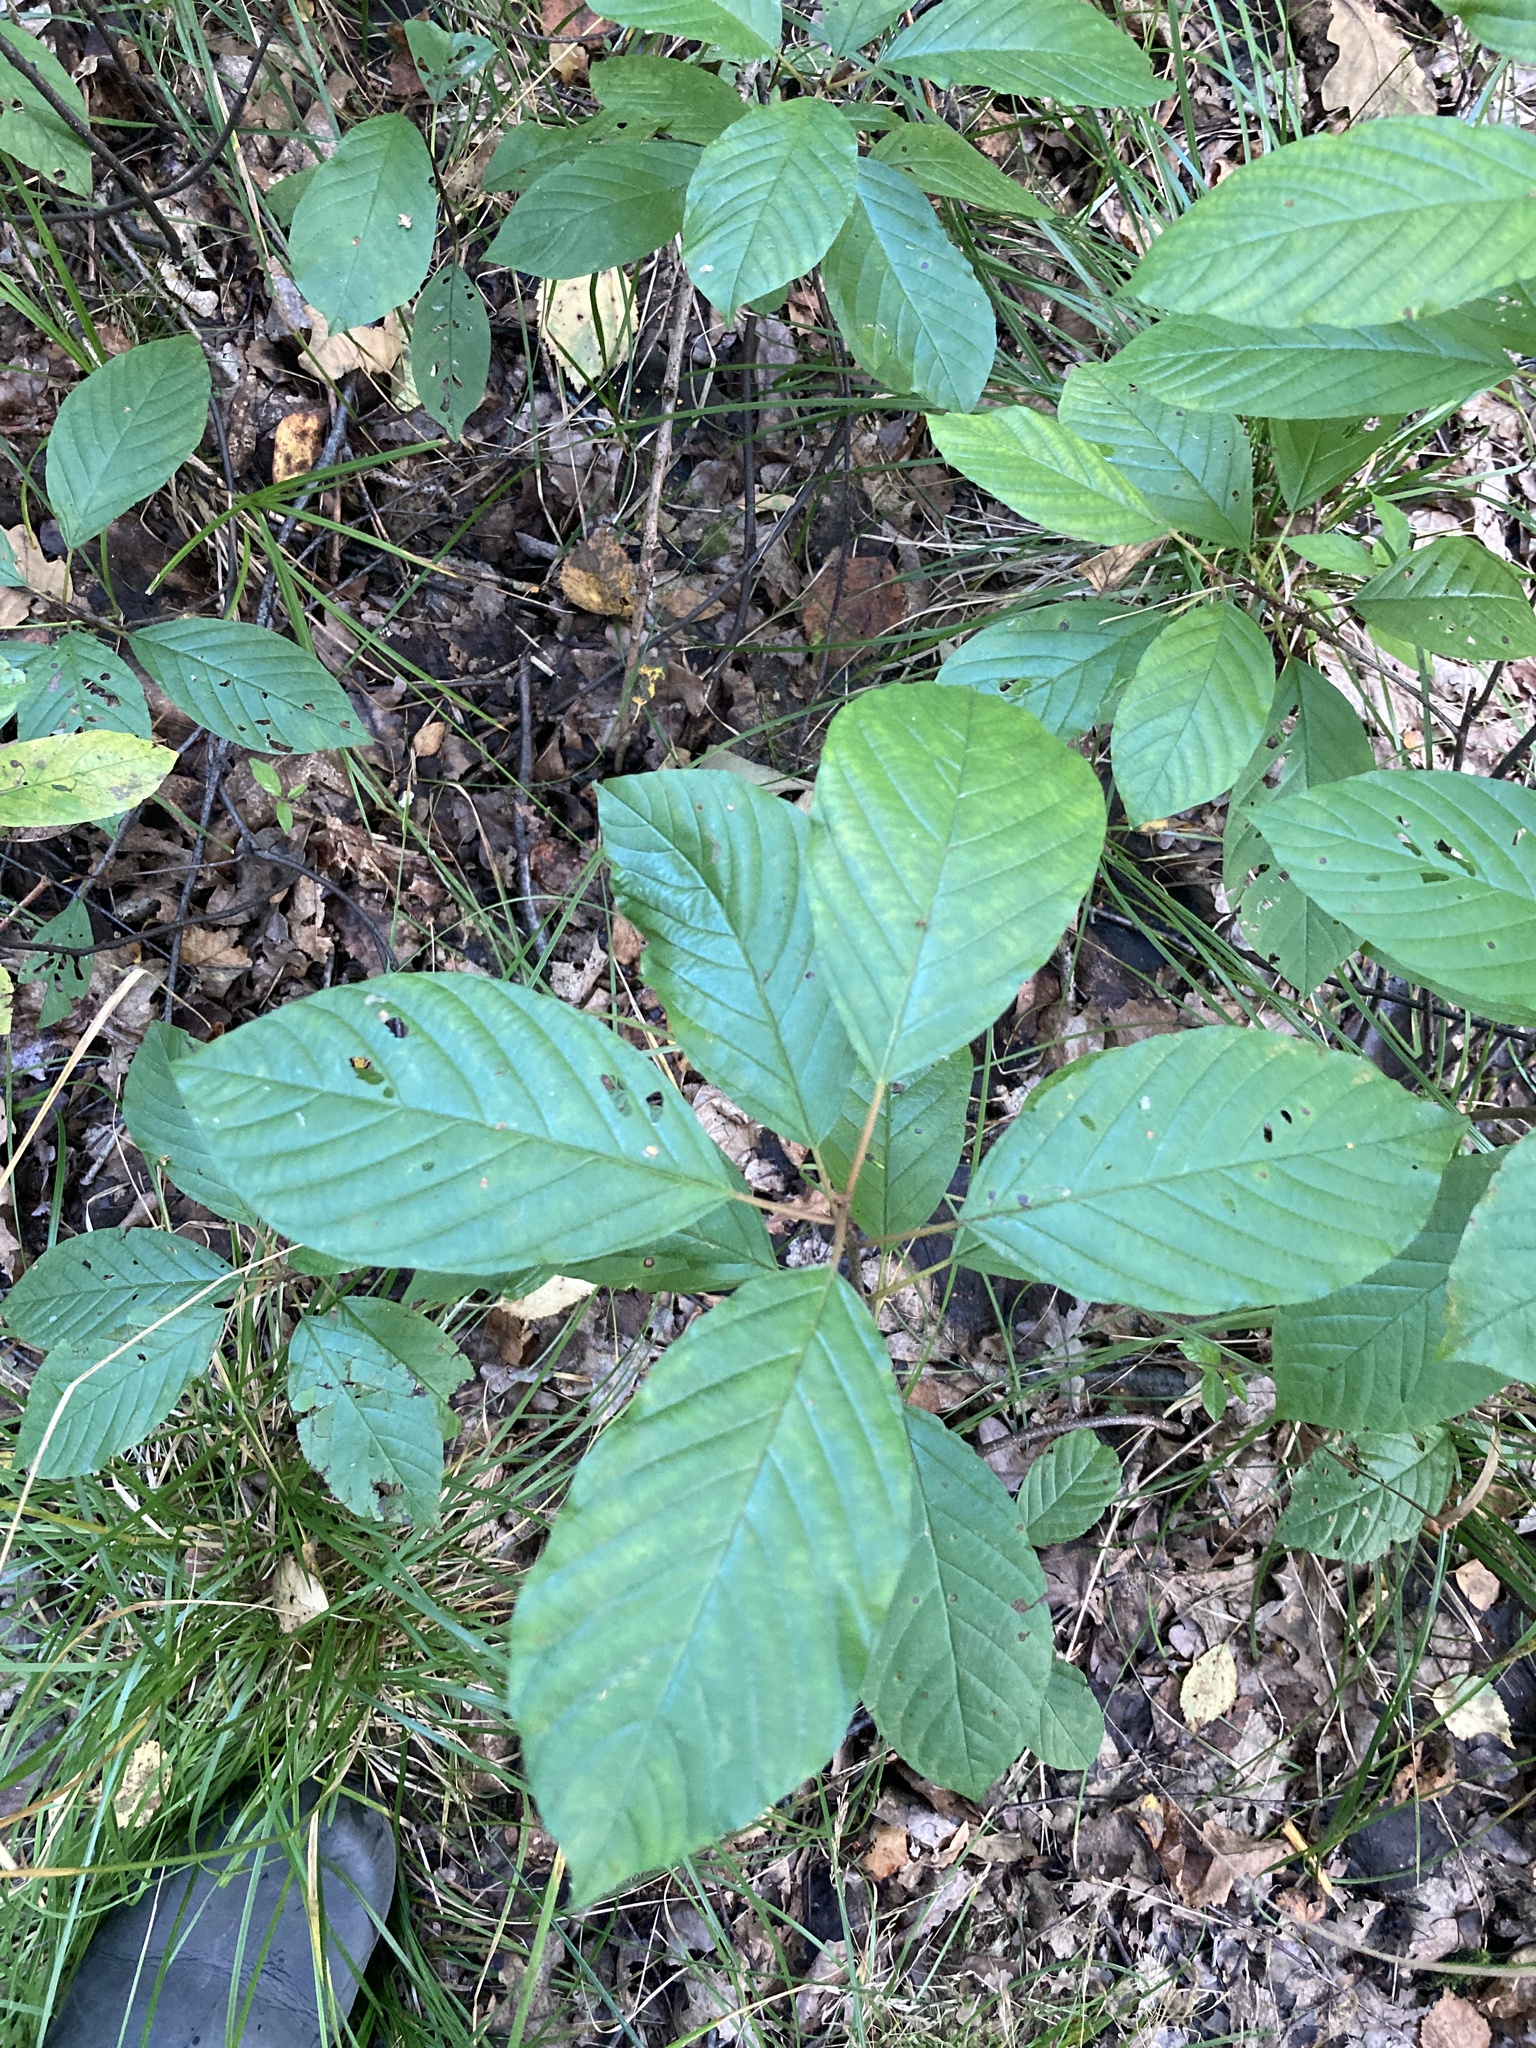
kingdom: Plantae
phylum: Tracheophyta
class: Magnoliopsida
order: Rosales
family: Rhamnaceae
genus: Frangula
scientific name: Frangula alnus
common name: Alder buckthorn
